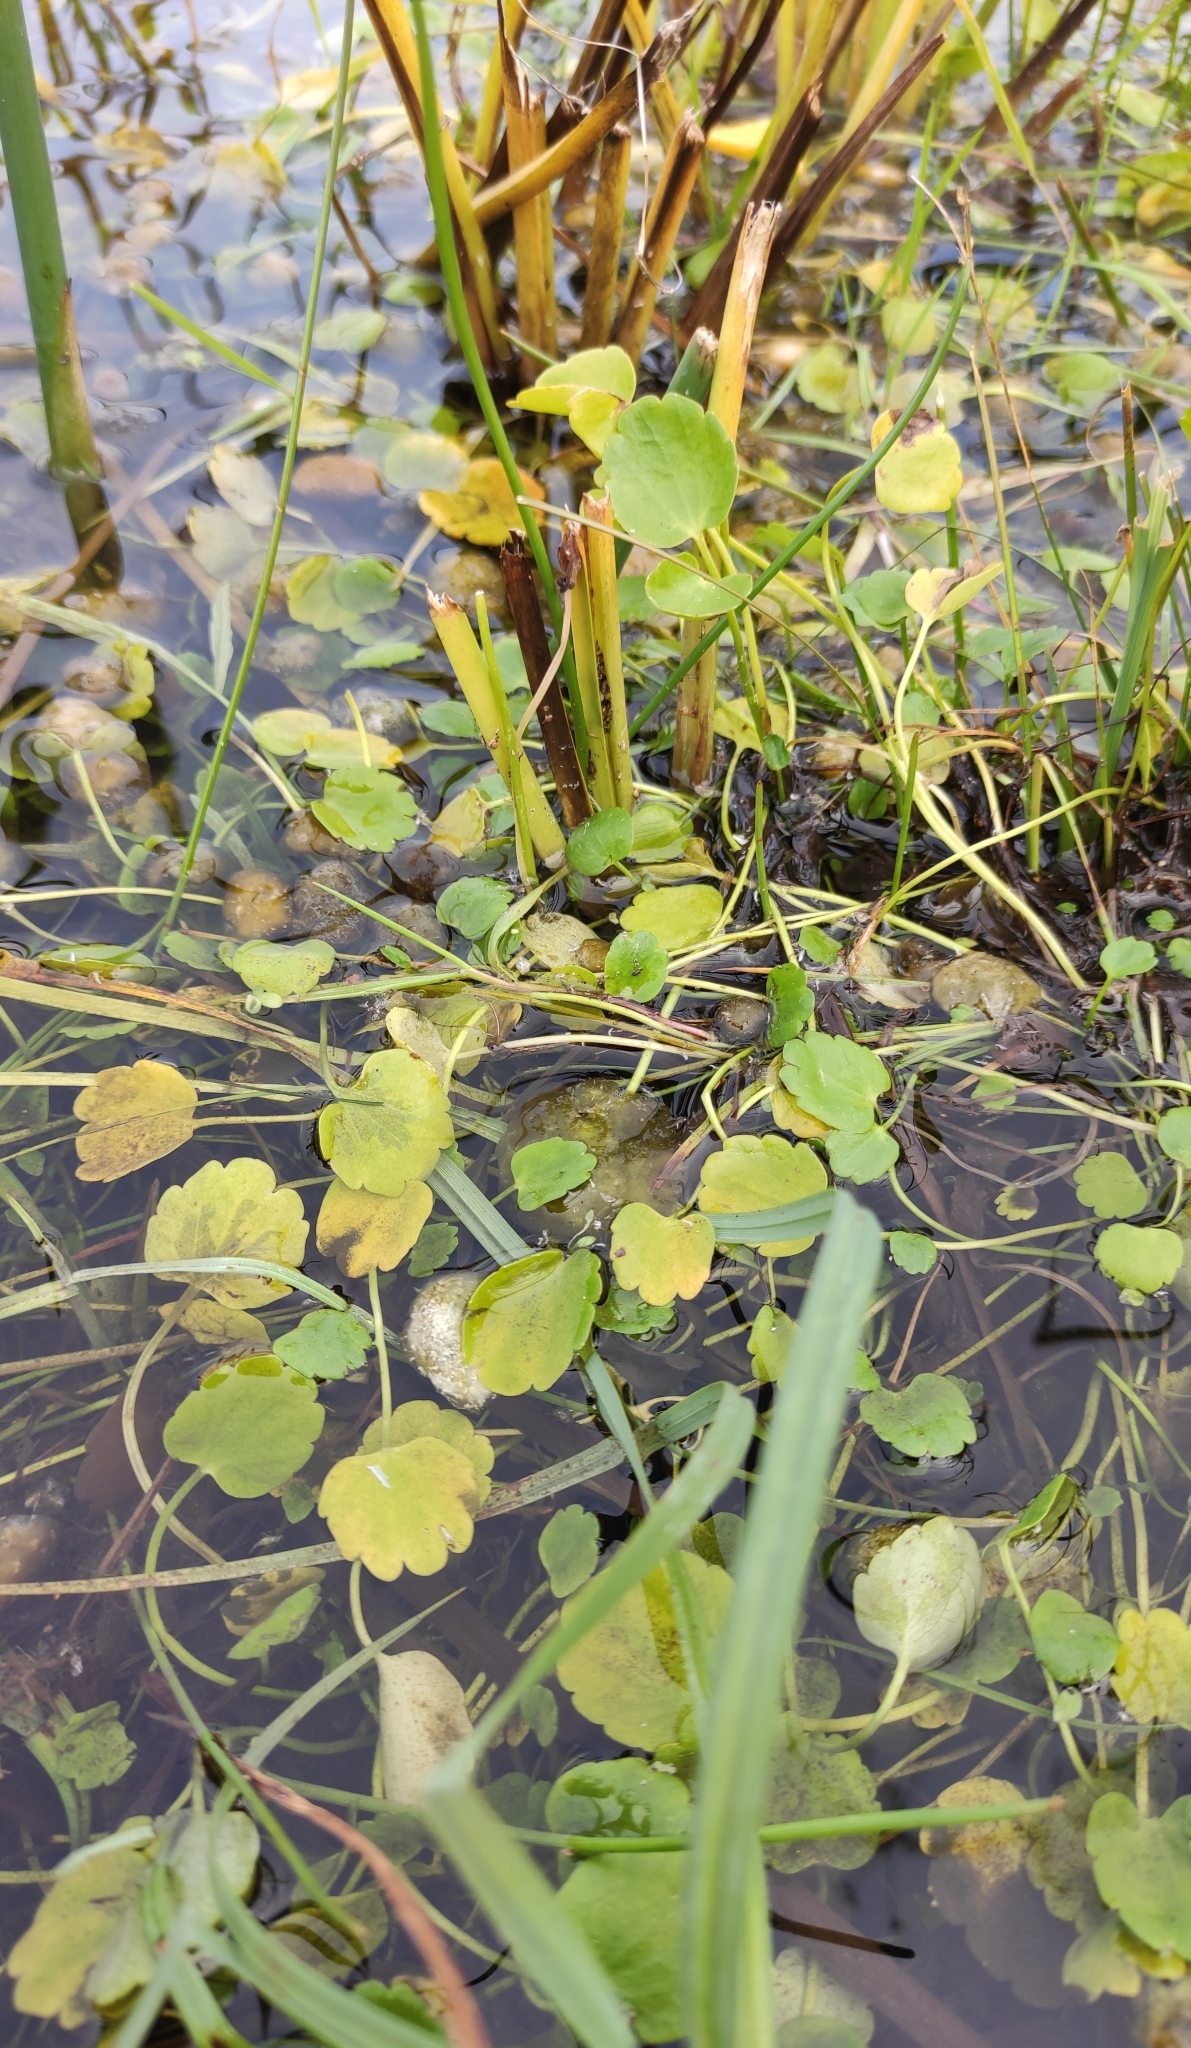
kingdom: Plantae
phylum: Tracheophyta
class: Magnoliopsida
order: Ranunculales
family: Ranunculaceae
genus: Halerpestes
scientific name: Halerpestes sarmentosus
